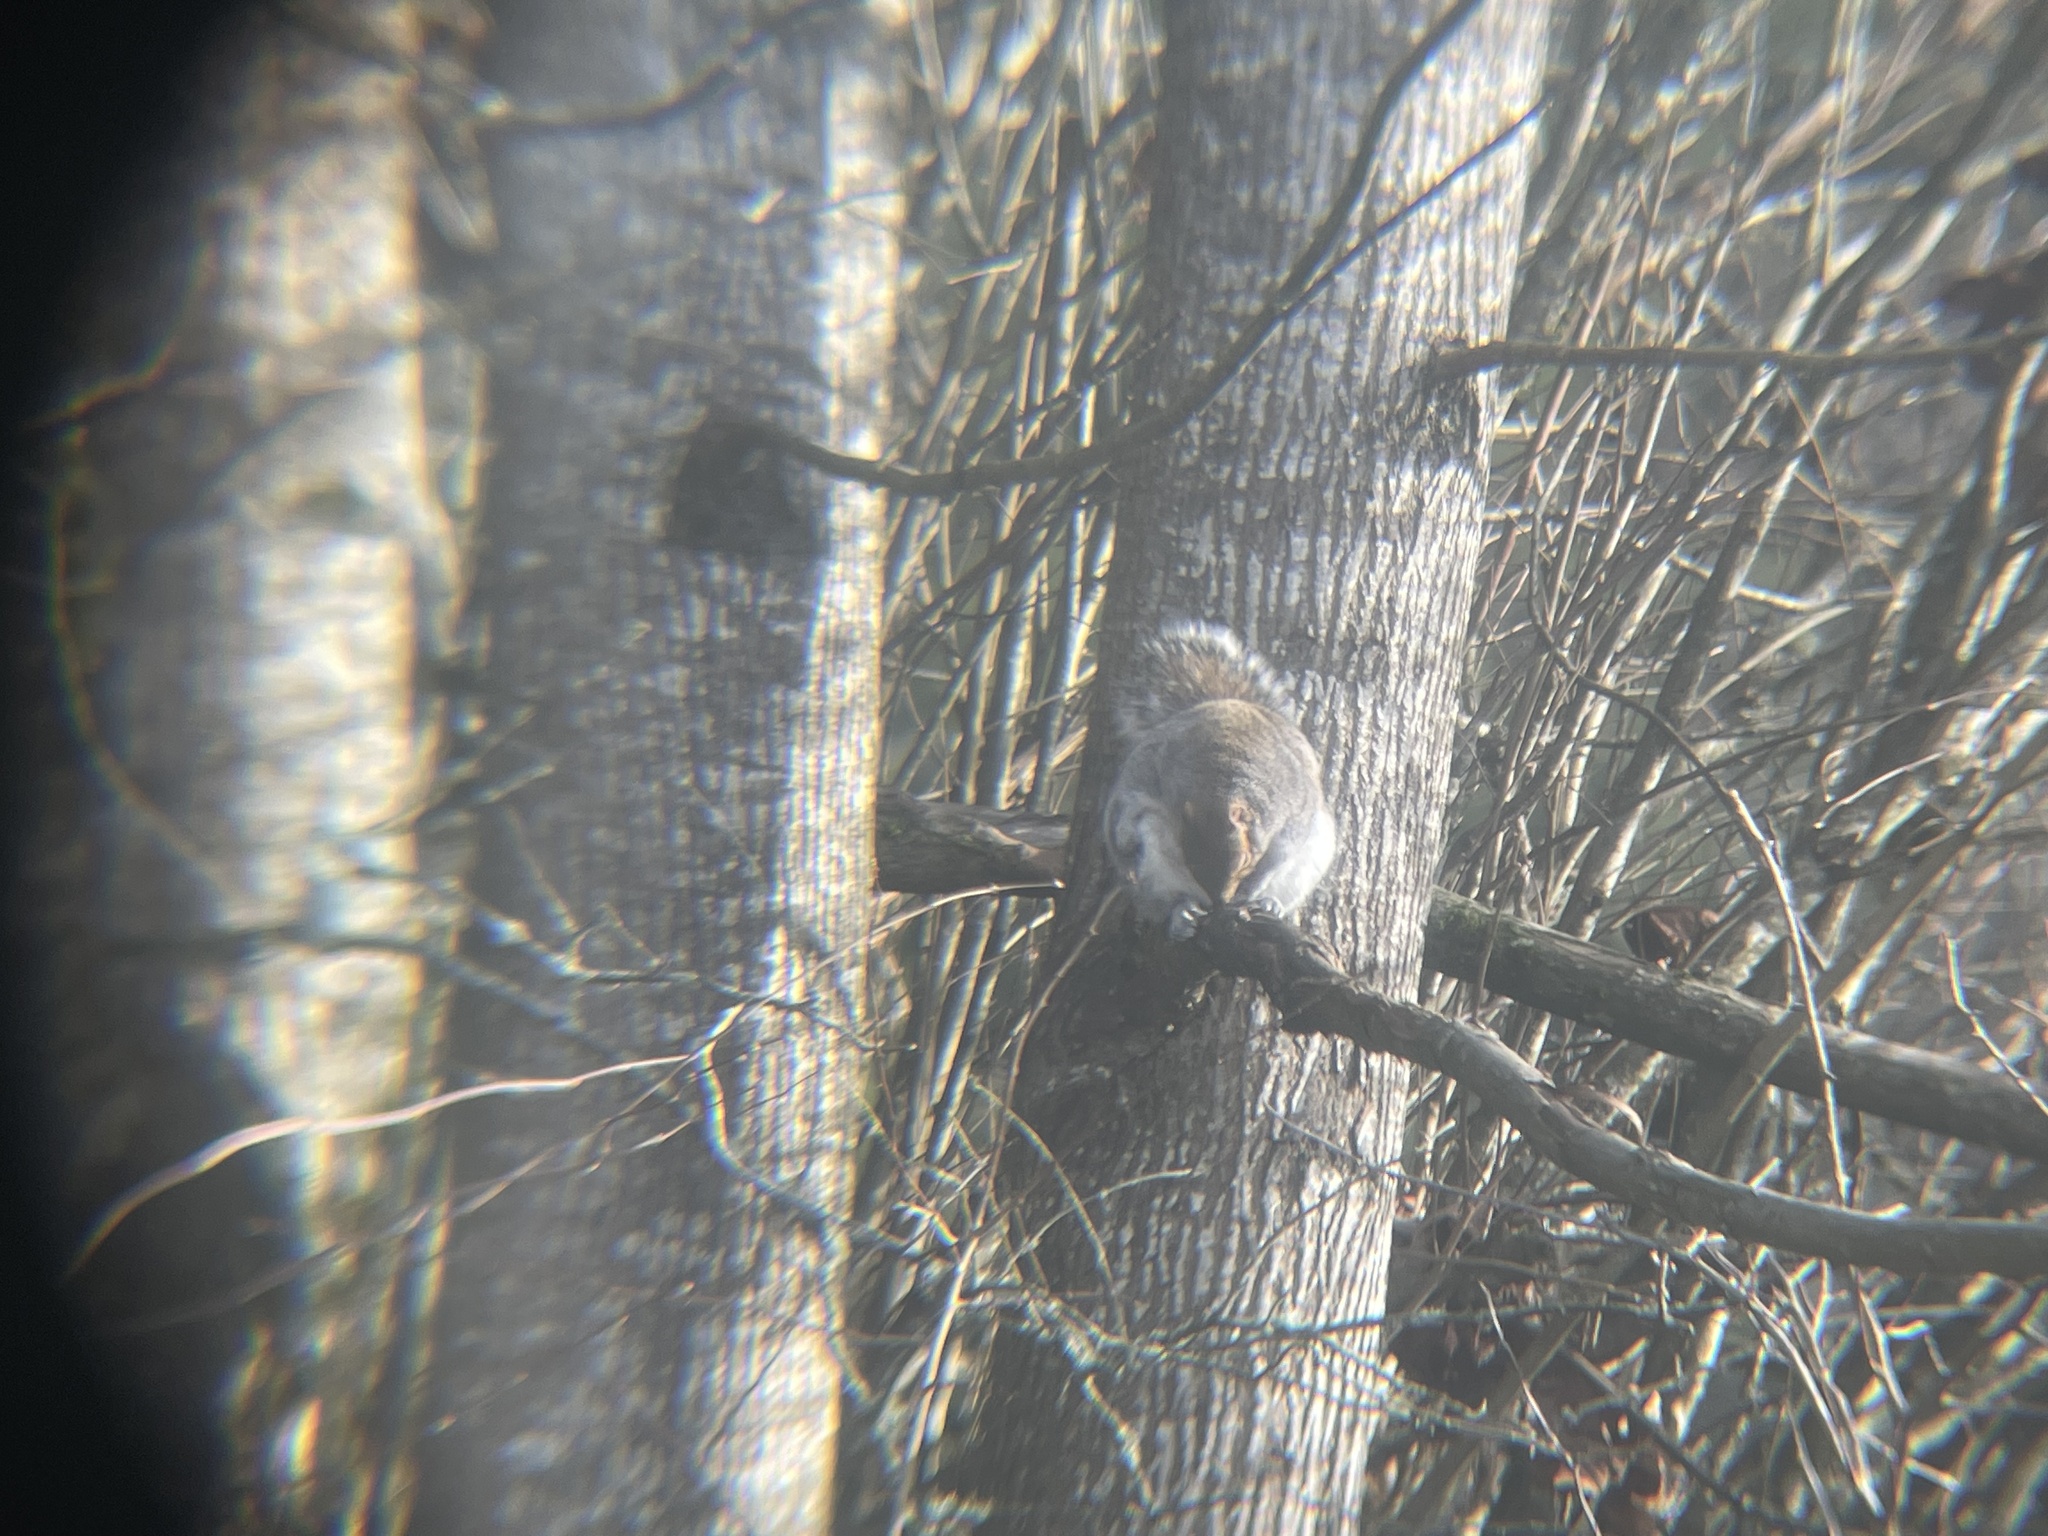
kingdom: Animalia
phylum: Chordata
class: Mammalia
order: Rodentia
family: Sciuridae
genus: Sciurus
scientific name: Sciurus carolinensis
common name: Eastern gray squirrel
